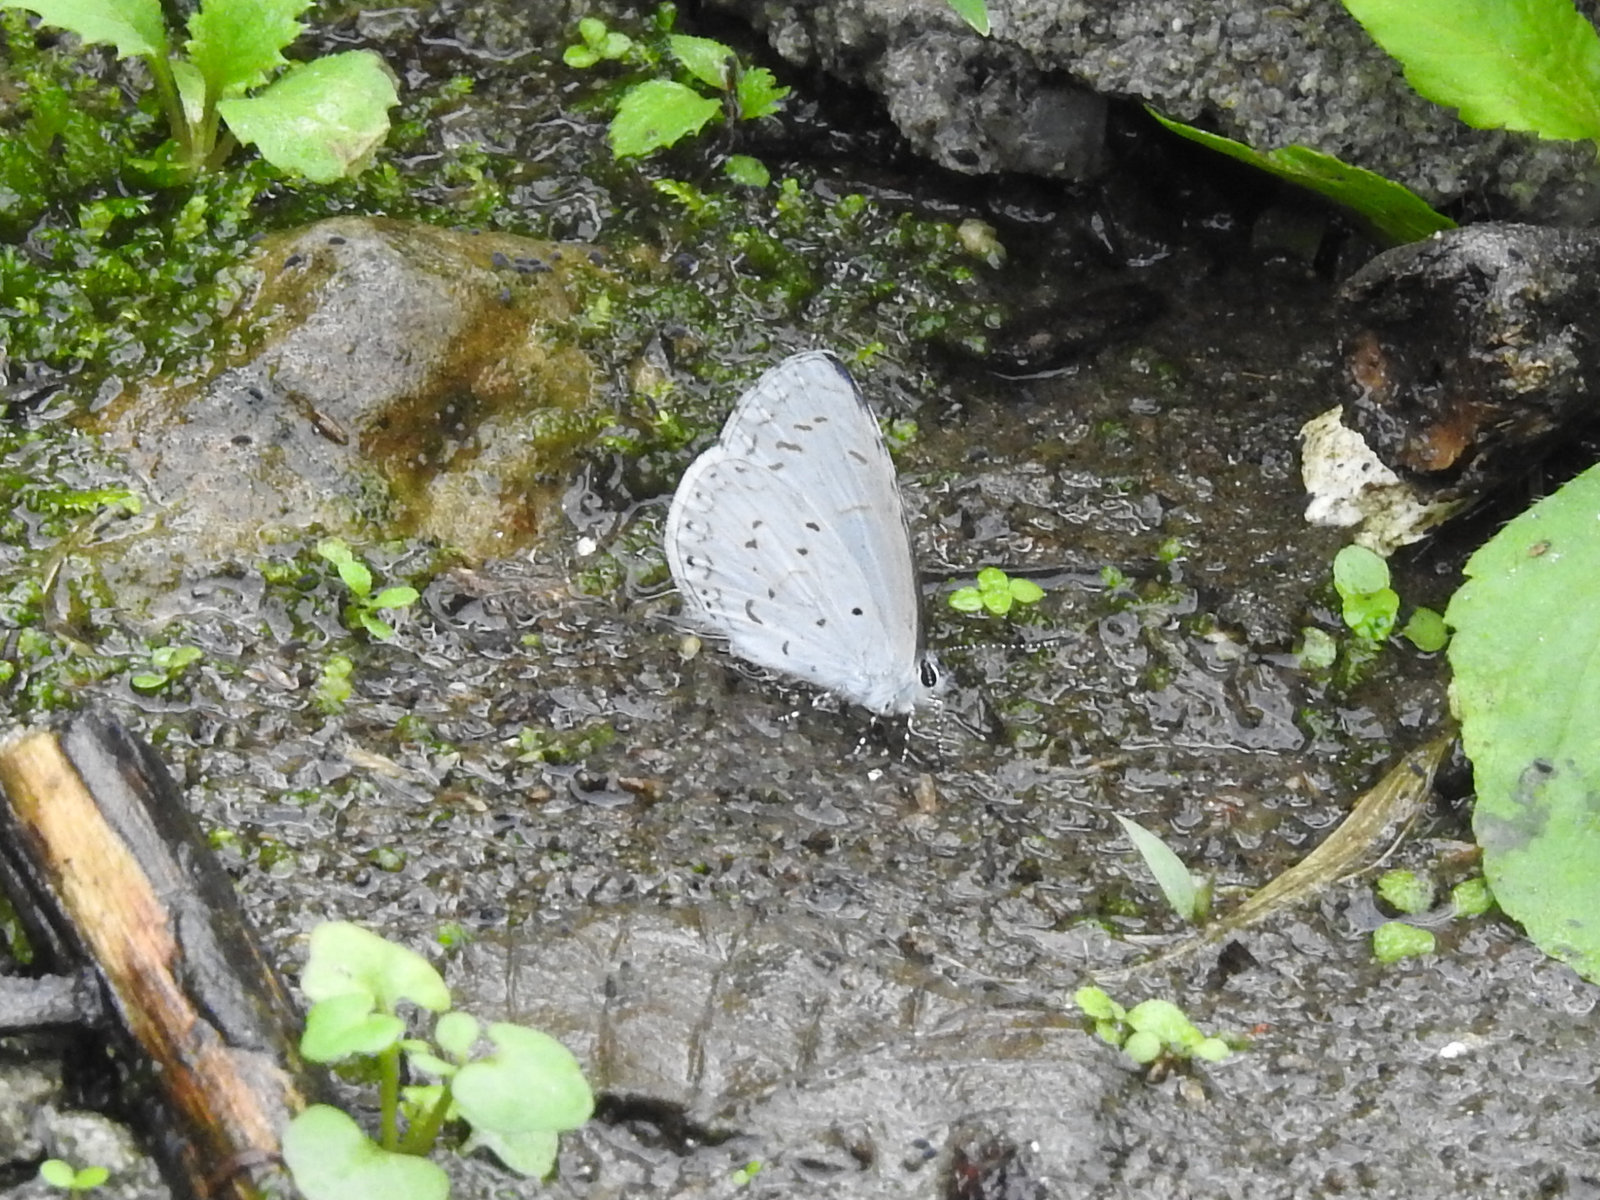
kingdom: Animalia
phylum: Arthropoda
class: Insecta
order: Lepidoptera
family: Lycaenidae
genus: Udara
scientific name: Udara dilectus
